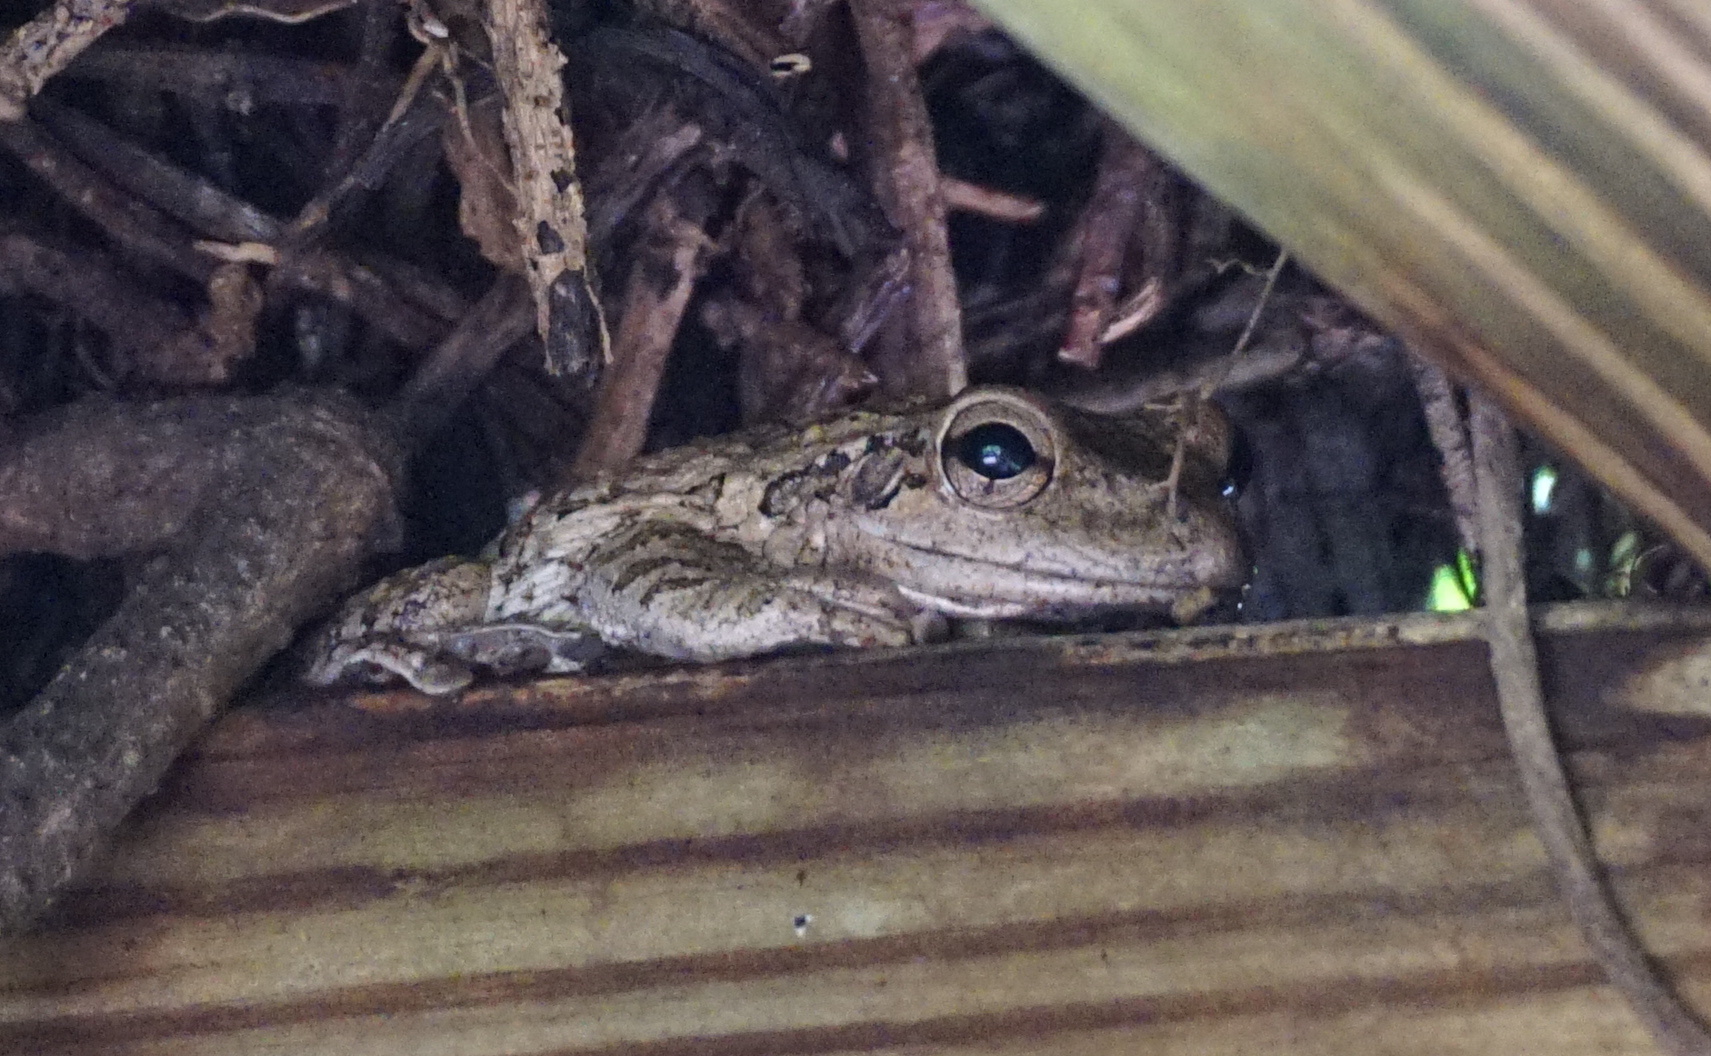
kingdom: Animalia
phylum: Chordata
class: Amphibia
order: Anura
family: Hylidae
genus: Osteopilus
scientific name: Osteopilus septentrionalis
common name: Cuban treefrog
